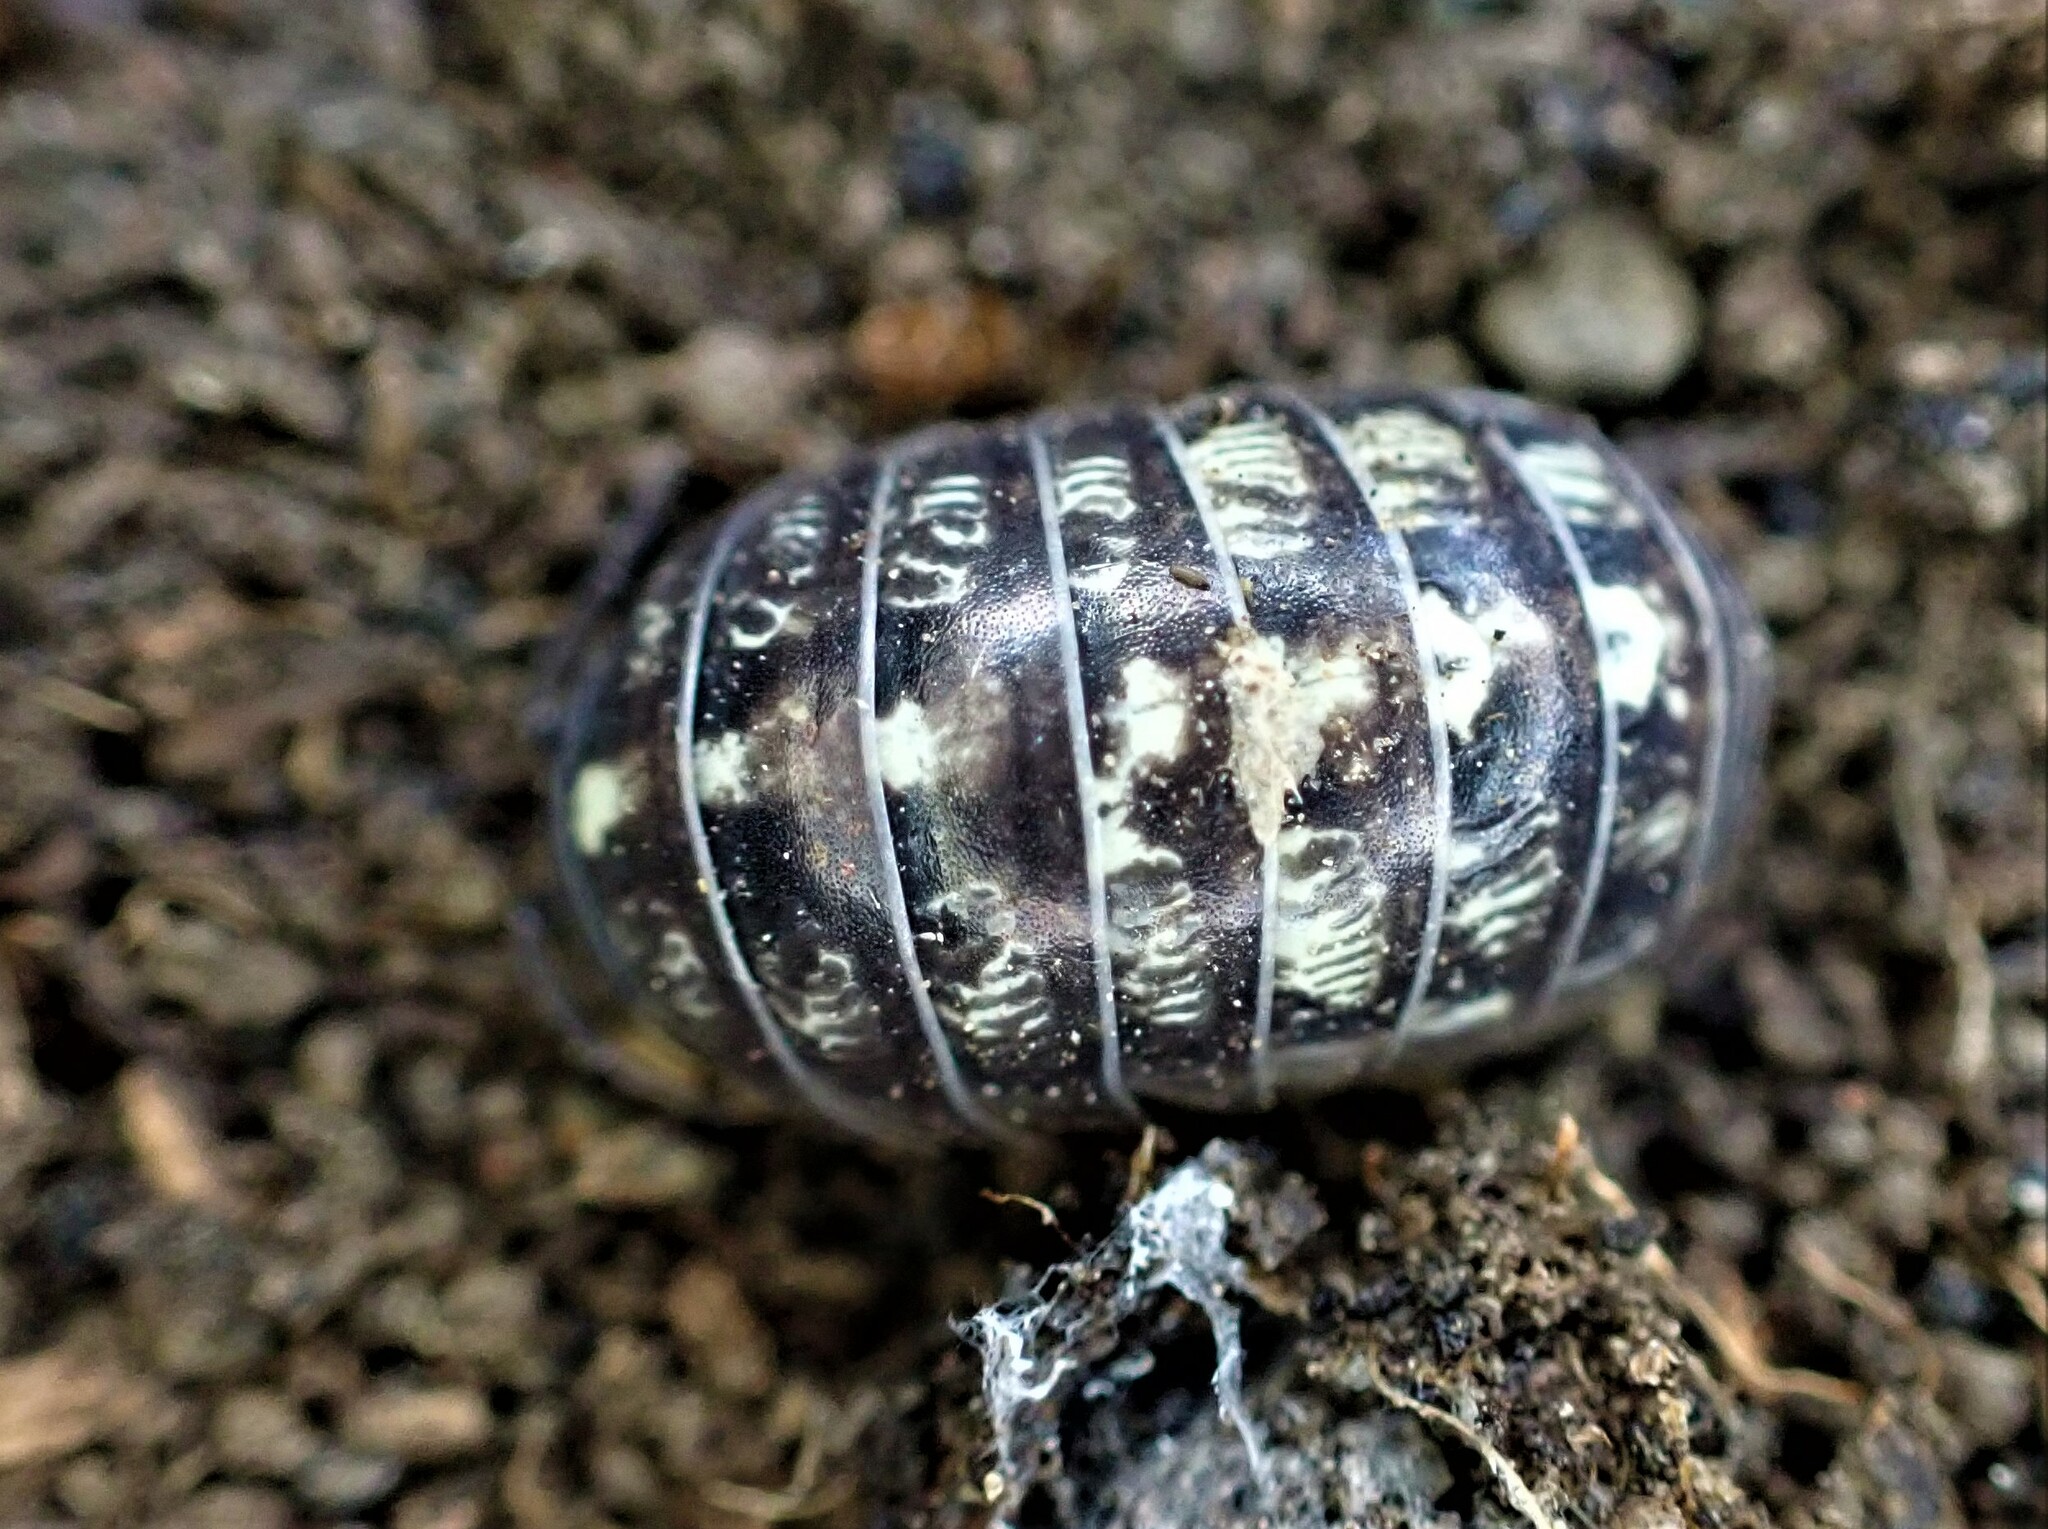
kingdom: Animalia
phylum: Arthropoda
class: Malacostraca
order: Isopoda
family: Armadillidiidae
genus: Armadillidium
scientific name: Armadillidium vulgare
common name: Common pill woodlouse
